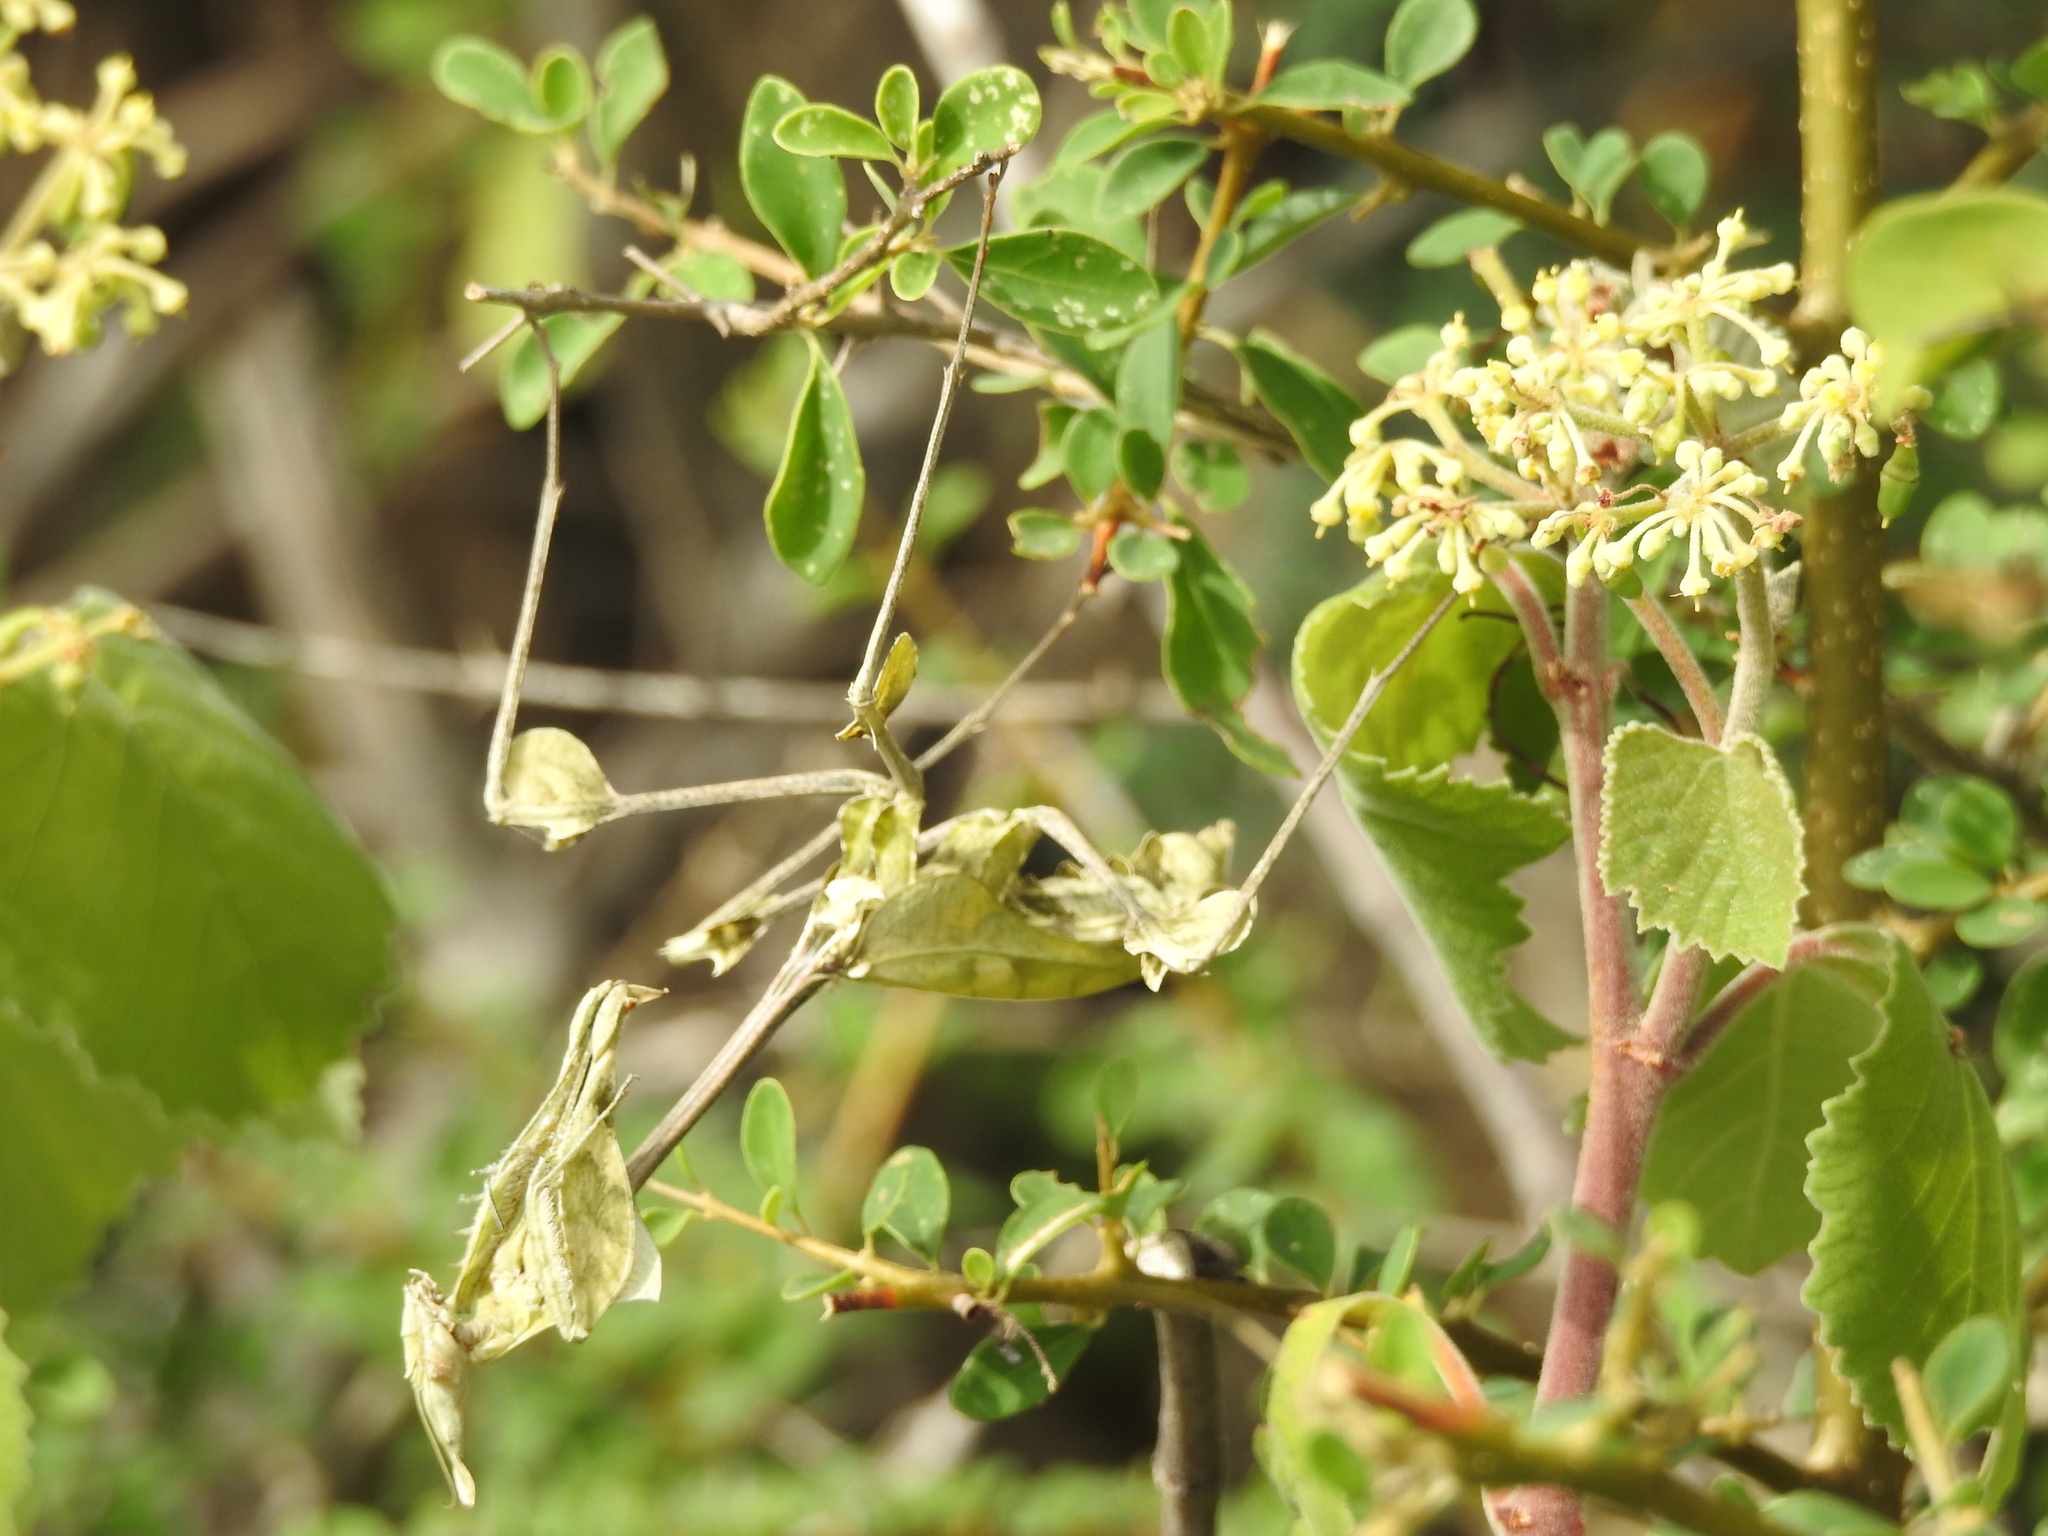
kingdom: Animalia
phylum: Arthropoda
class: Insecta
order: Mantodea
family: Empusidae
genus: Gongylus
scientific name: Gongylus gongylodes
